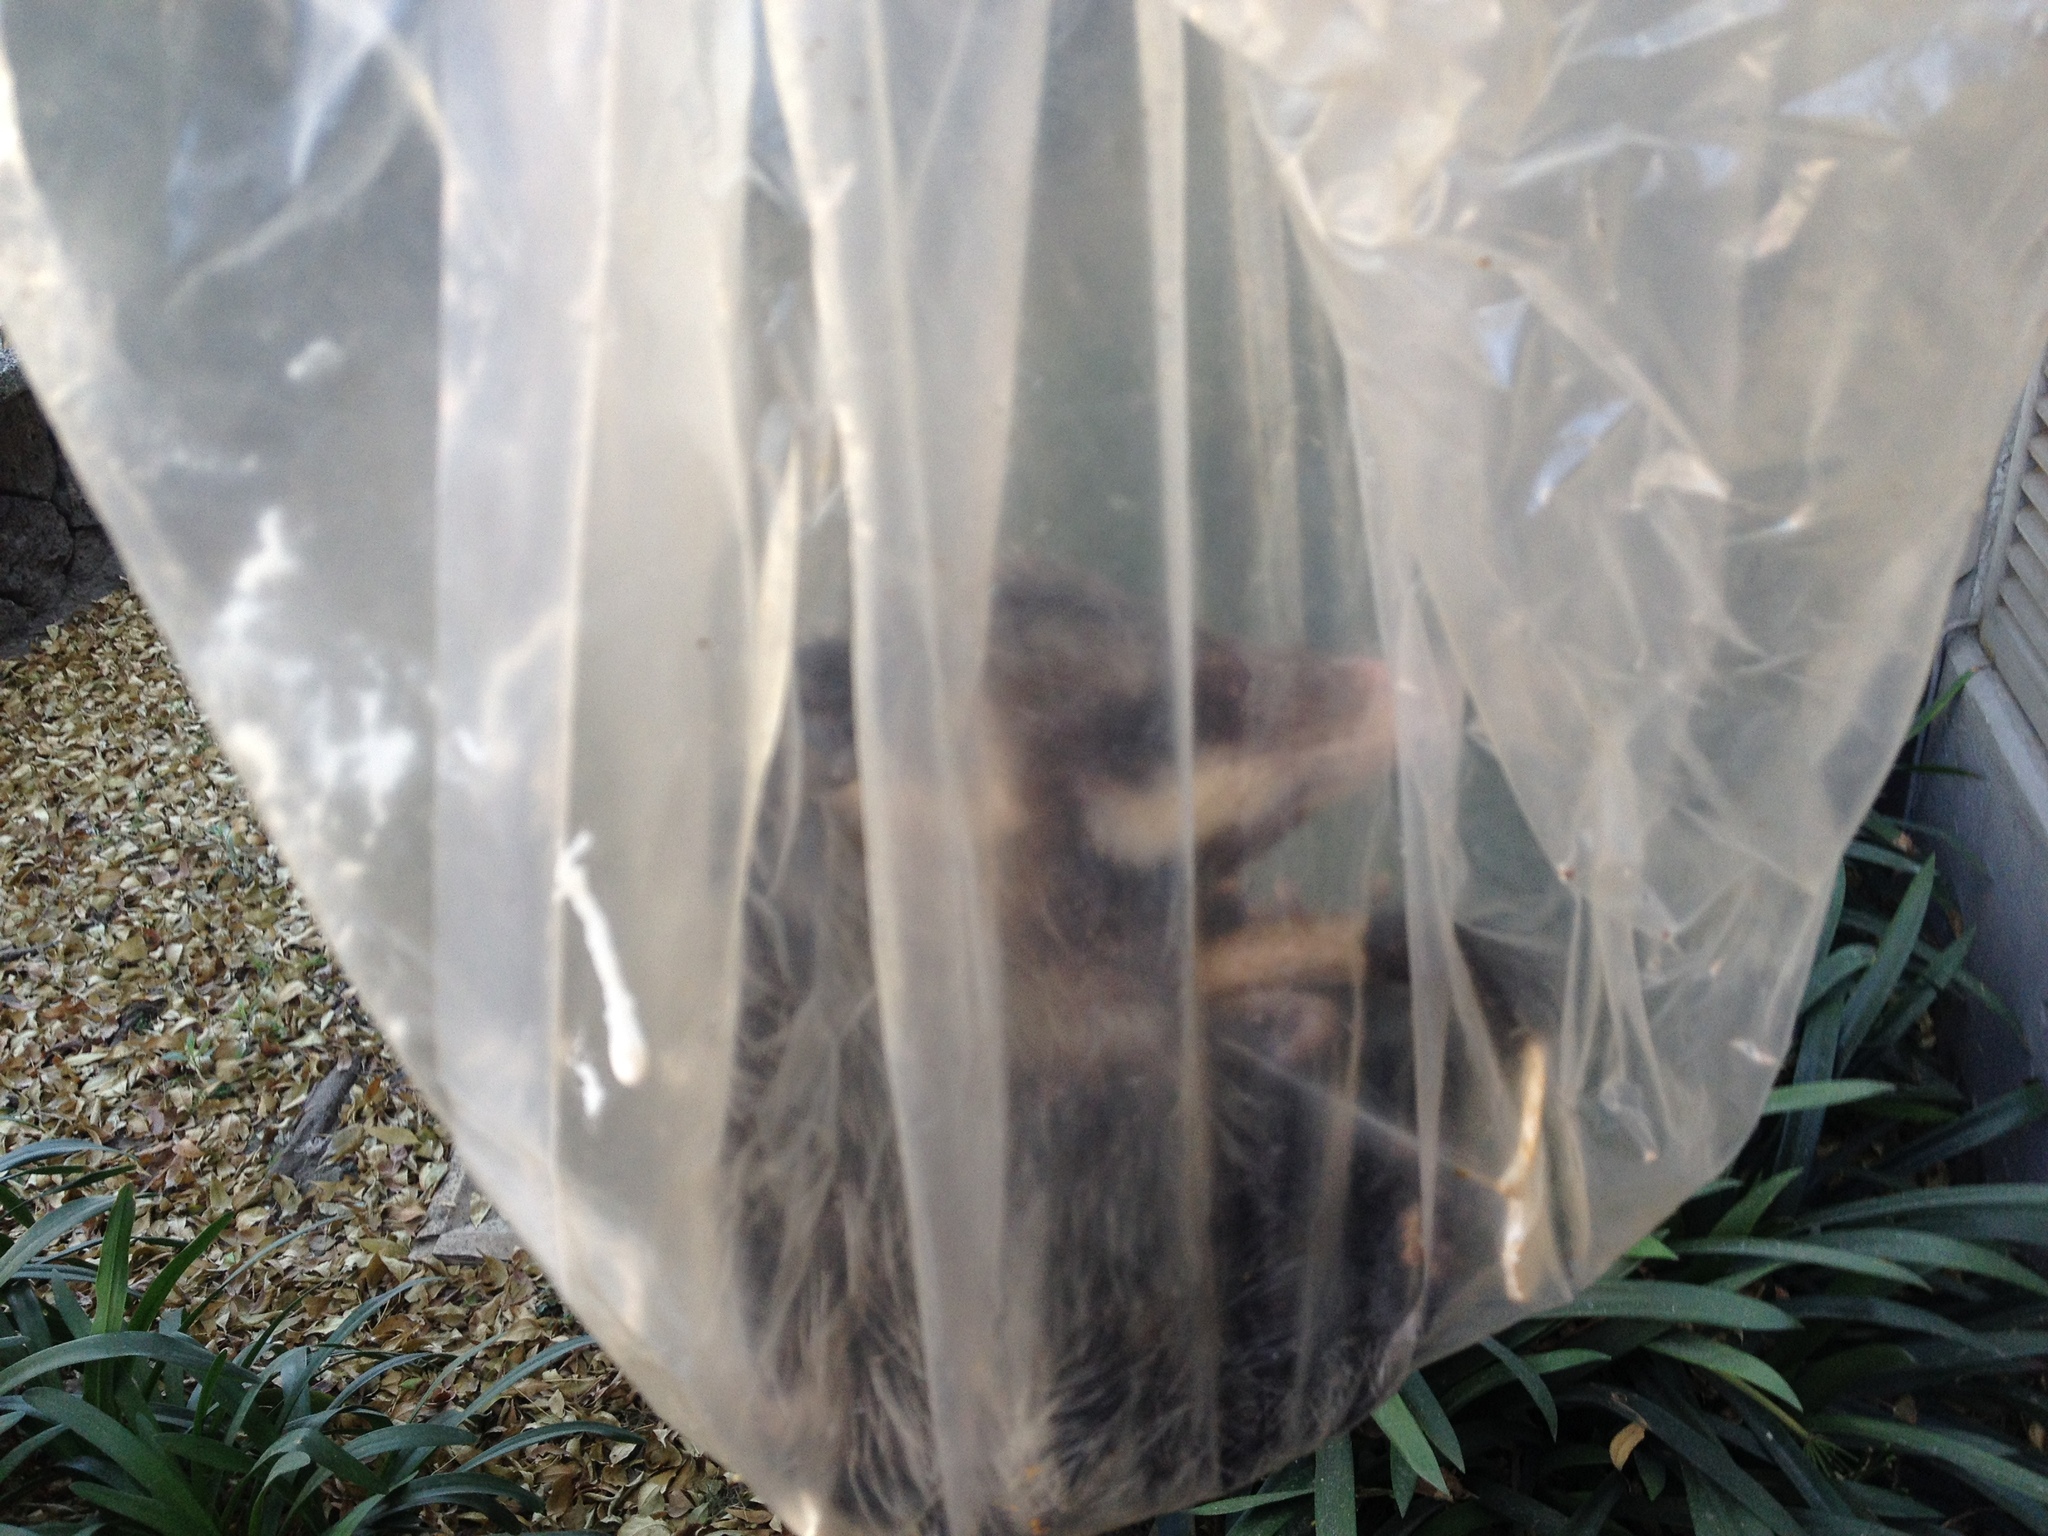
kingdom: Animalia
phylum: Chordata
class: Mammalia
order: Didelphimorphia
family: Didelphidae
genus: Didelphis
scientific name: Didelphis virginiana
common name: Virginia opossum
